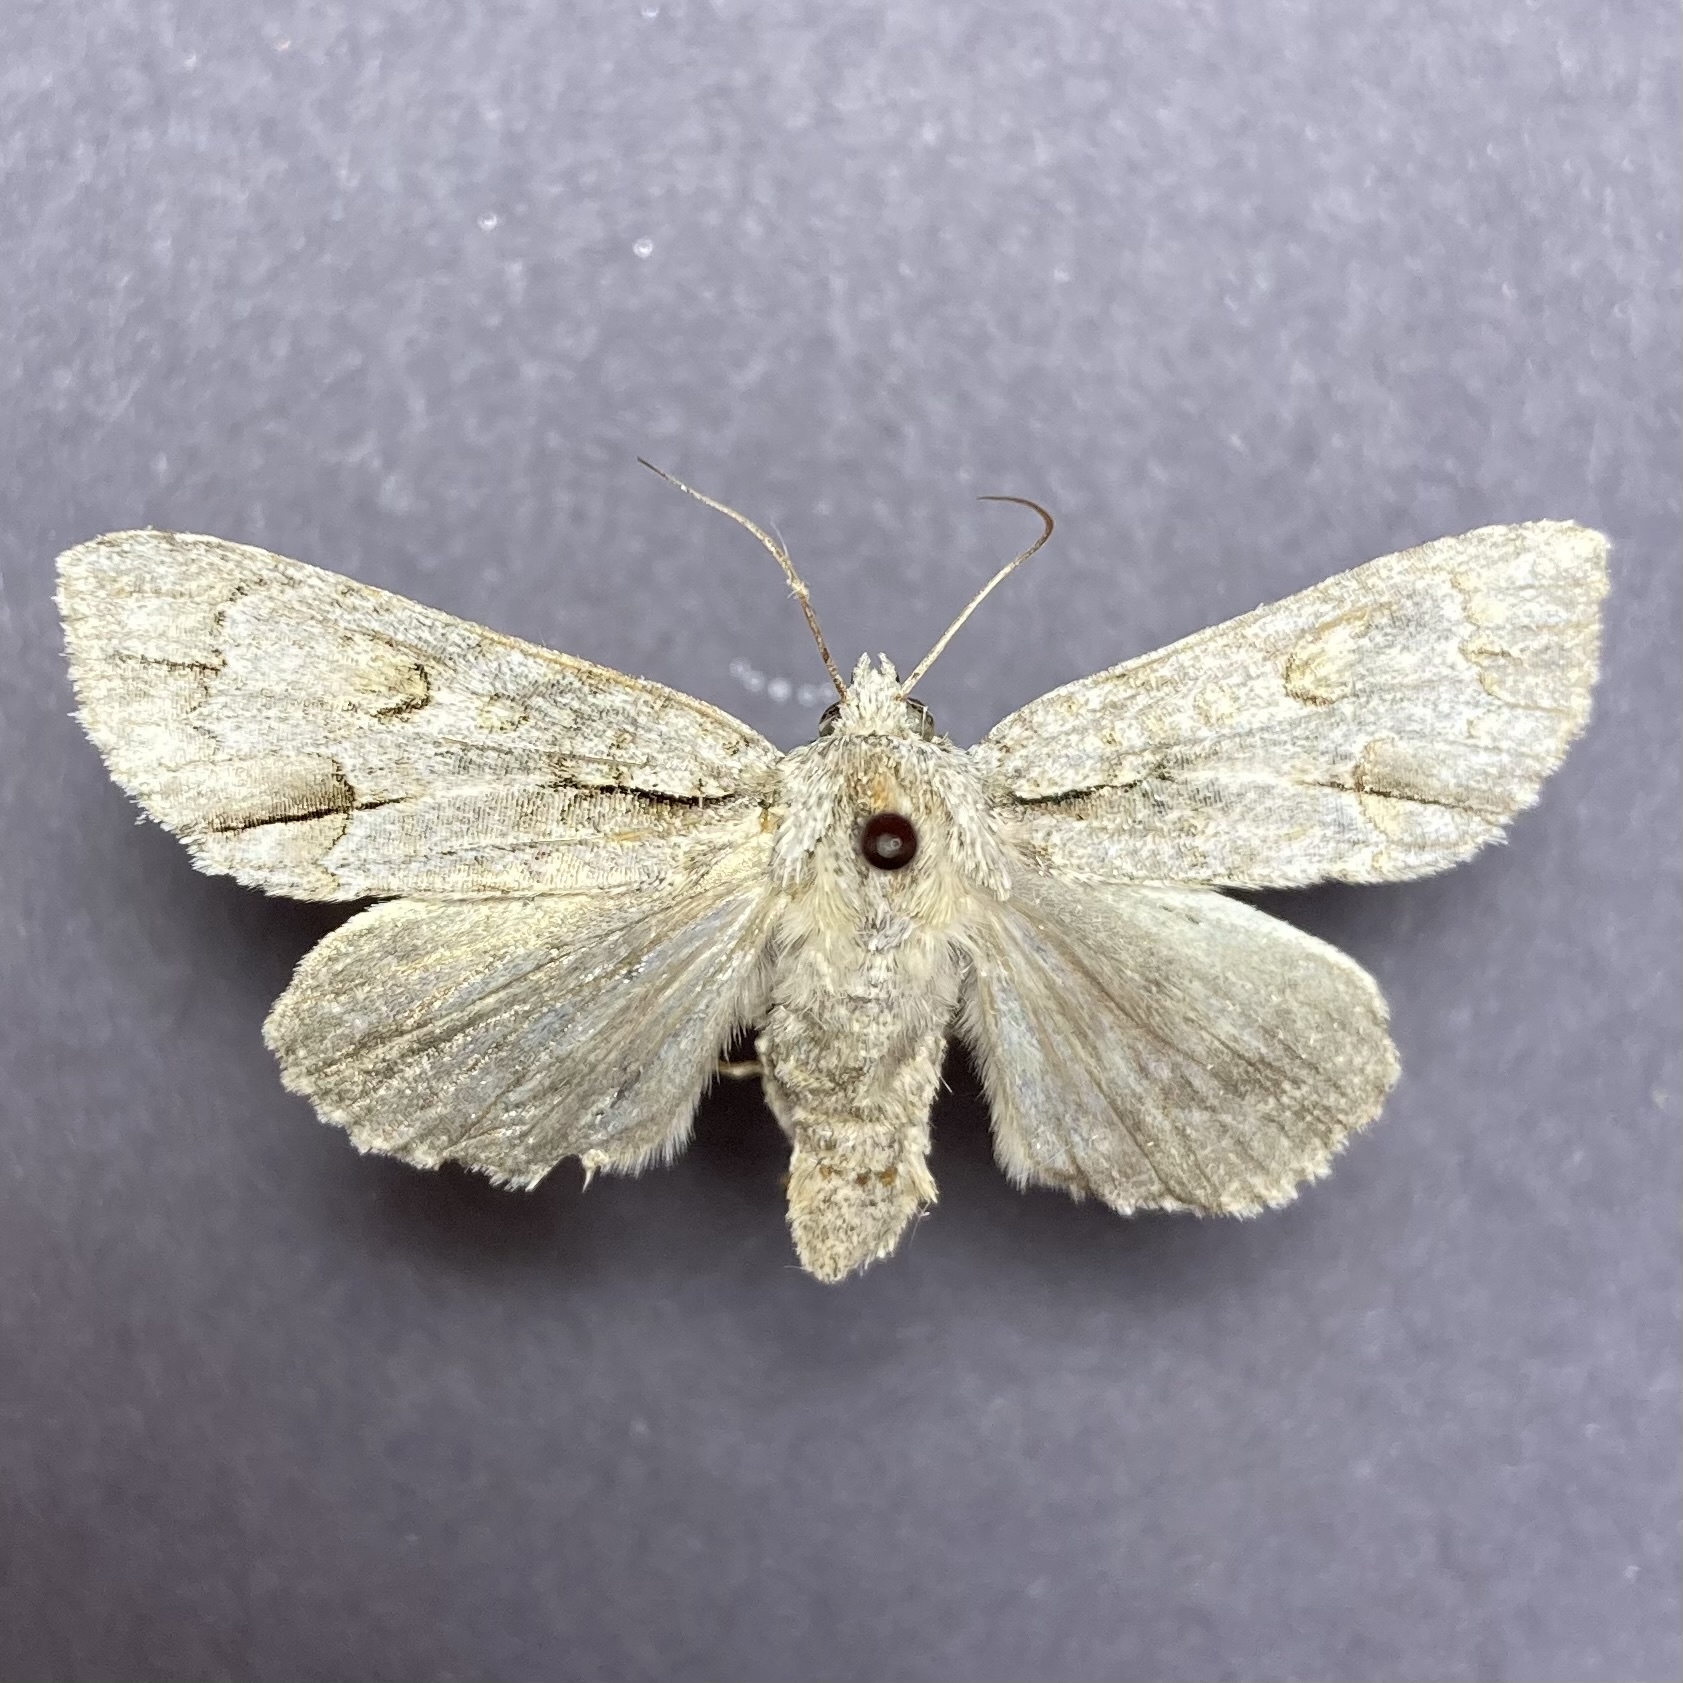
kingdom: Animalia
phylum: Arthropoda
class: Insecta
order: Lepidoptera
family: Noctuidae
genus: Acronicta
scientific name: Acronicta morula
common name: Ochre dagger
